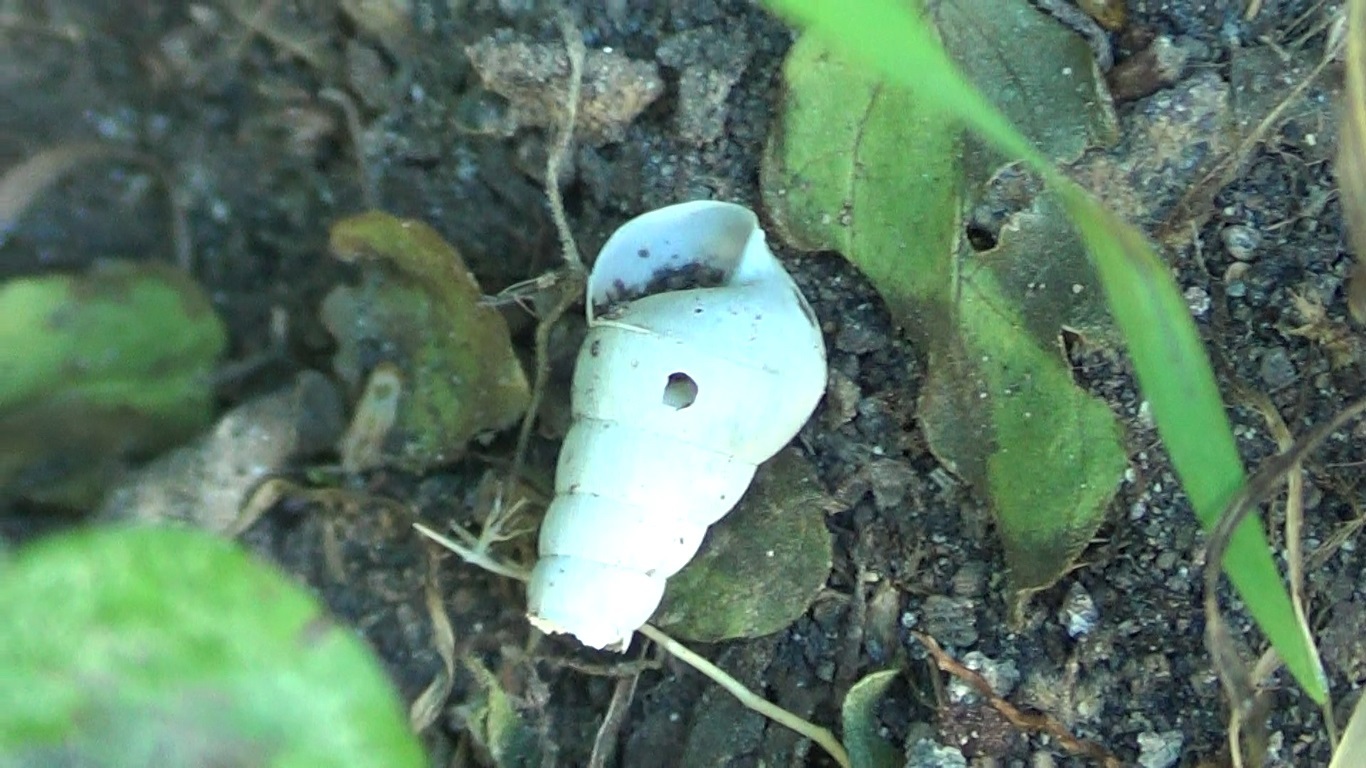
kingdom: Animalia
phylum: Mollusca
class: Gastropoda
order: Stylommatophora
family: Achatinidae
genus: Rumina
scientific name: Rumina decollata
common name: Decollate snail
